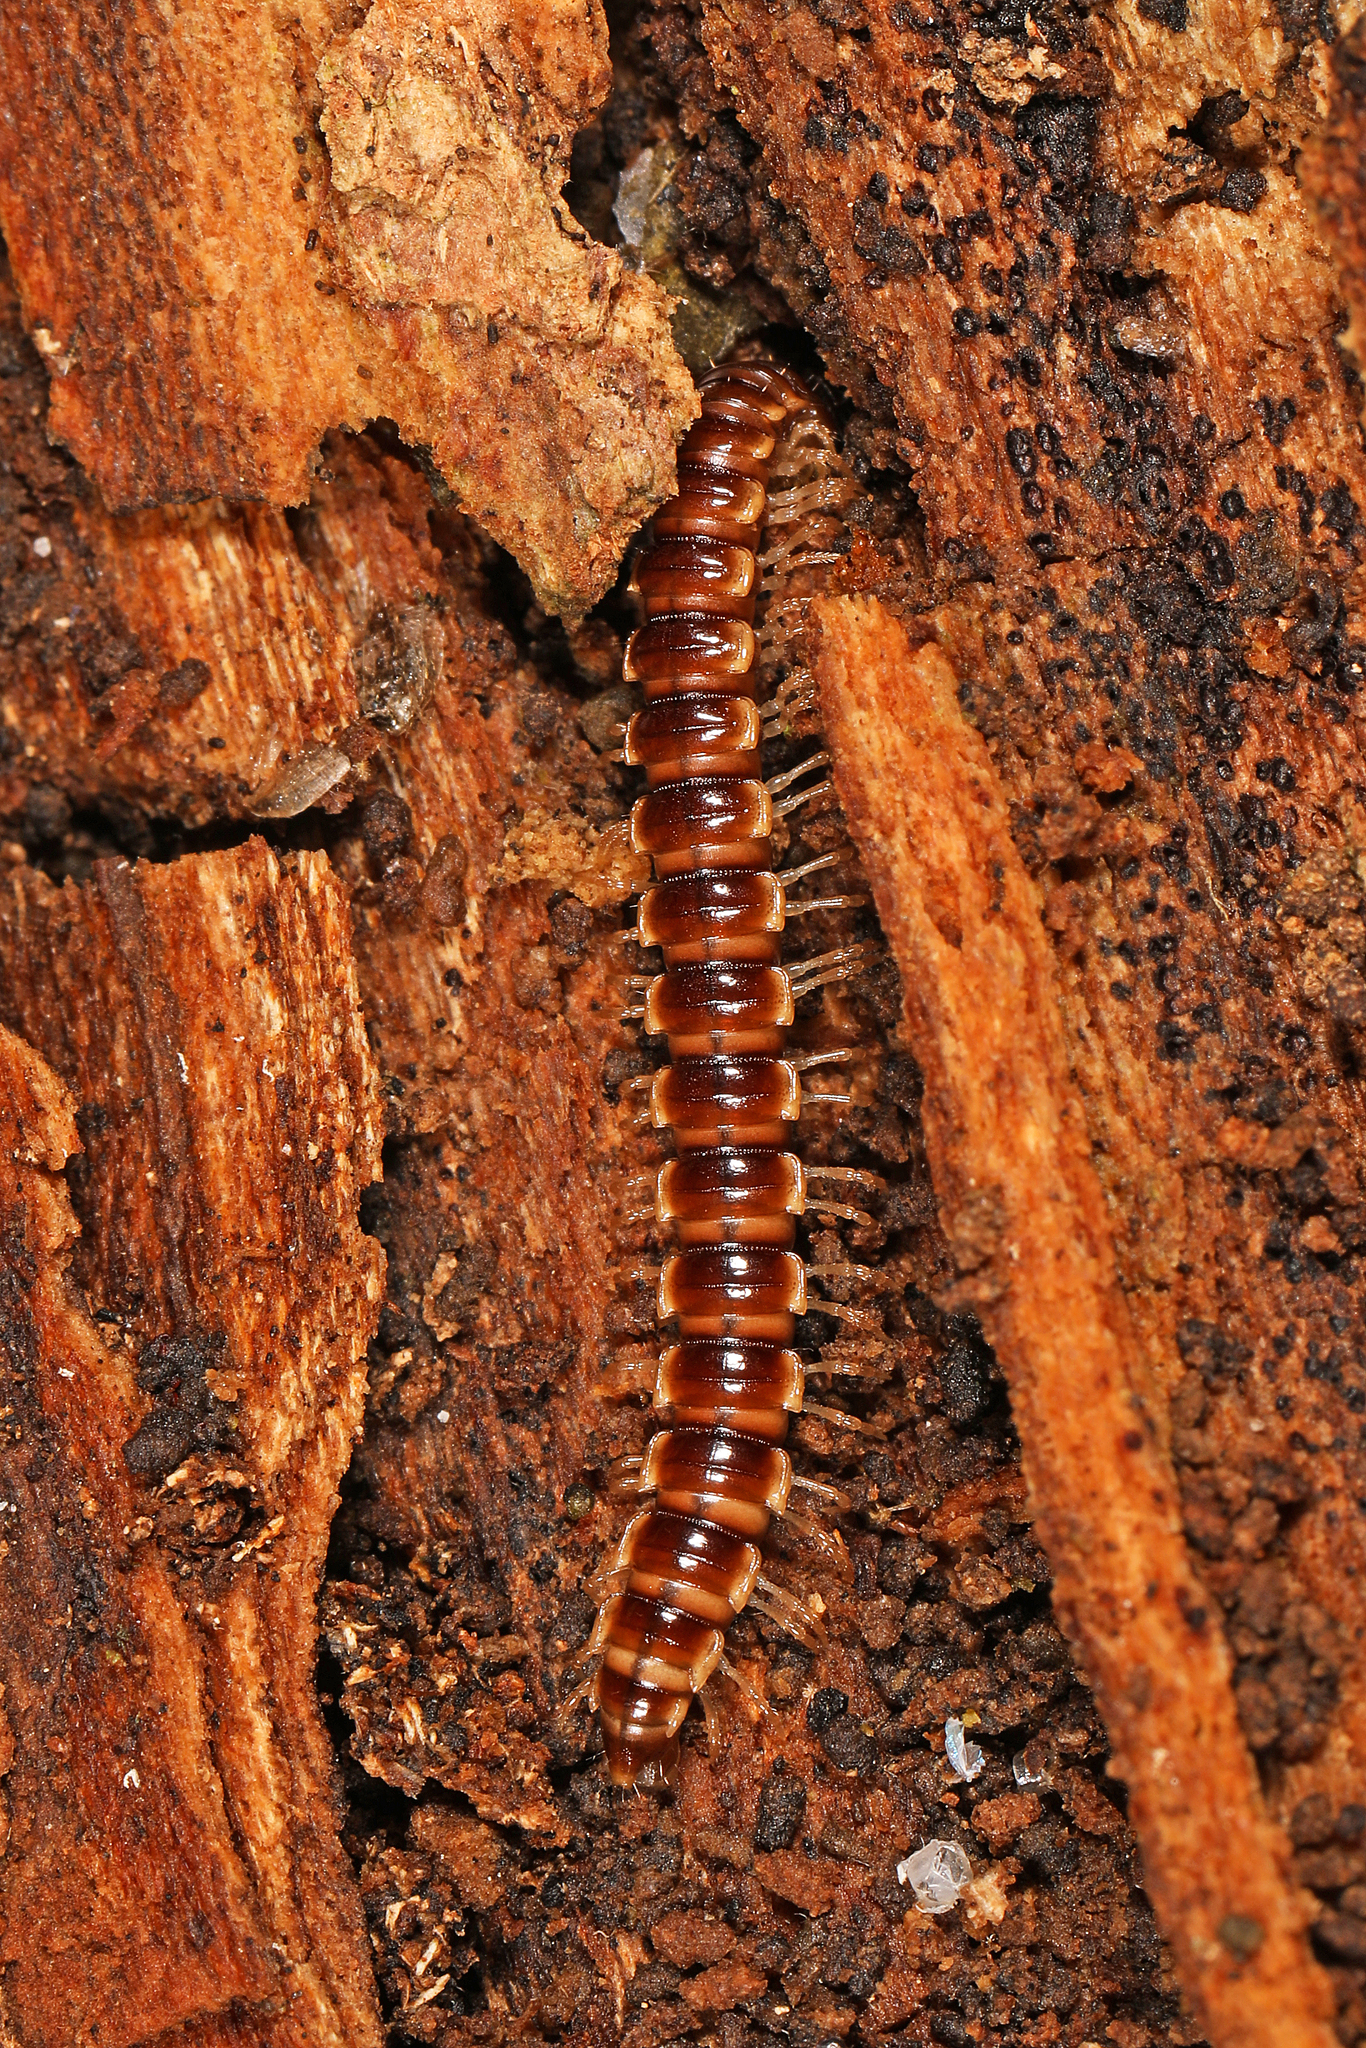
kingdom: Animalia
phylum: Arthropoda
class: Diplopoda
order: Polydesmida
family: Paradoxosomatidae
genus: Oxidus
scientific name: Oxidus gracilis
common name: Greenhouse millipede
